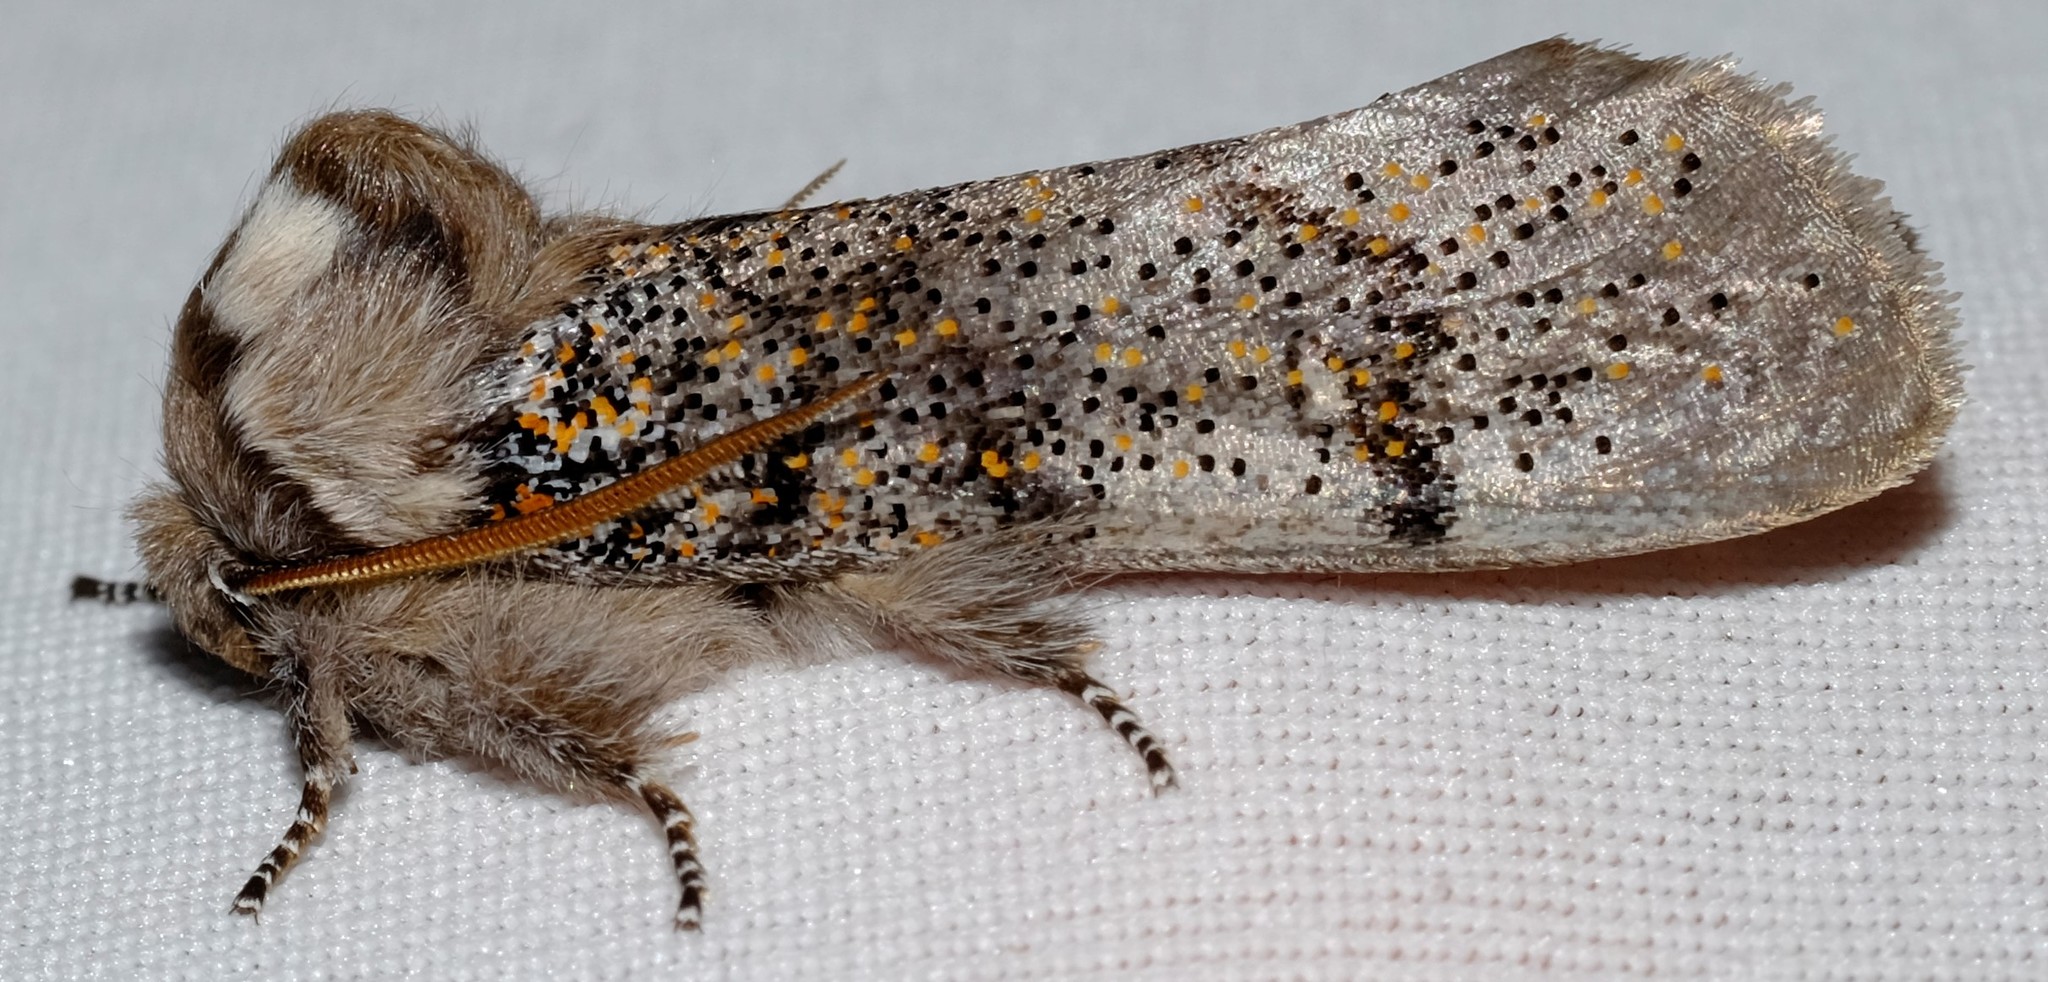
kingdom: Animalia
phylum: Arthropoda
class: Insecta
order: Lepidoptera
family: Oenosandridae
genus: Oenosandra
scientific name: Oenosandra boisduvalii
